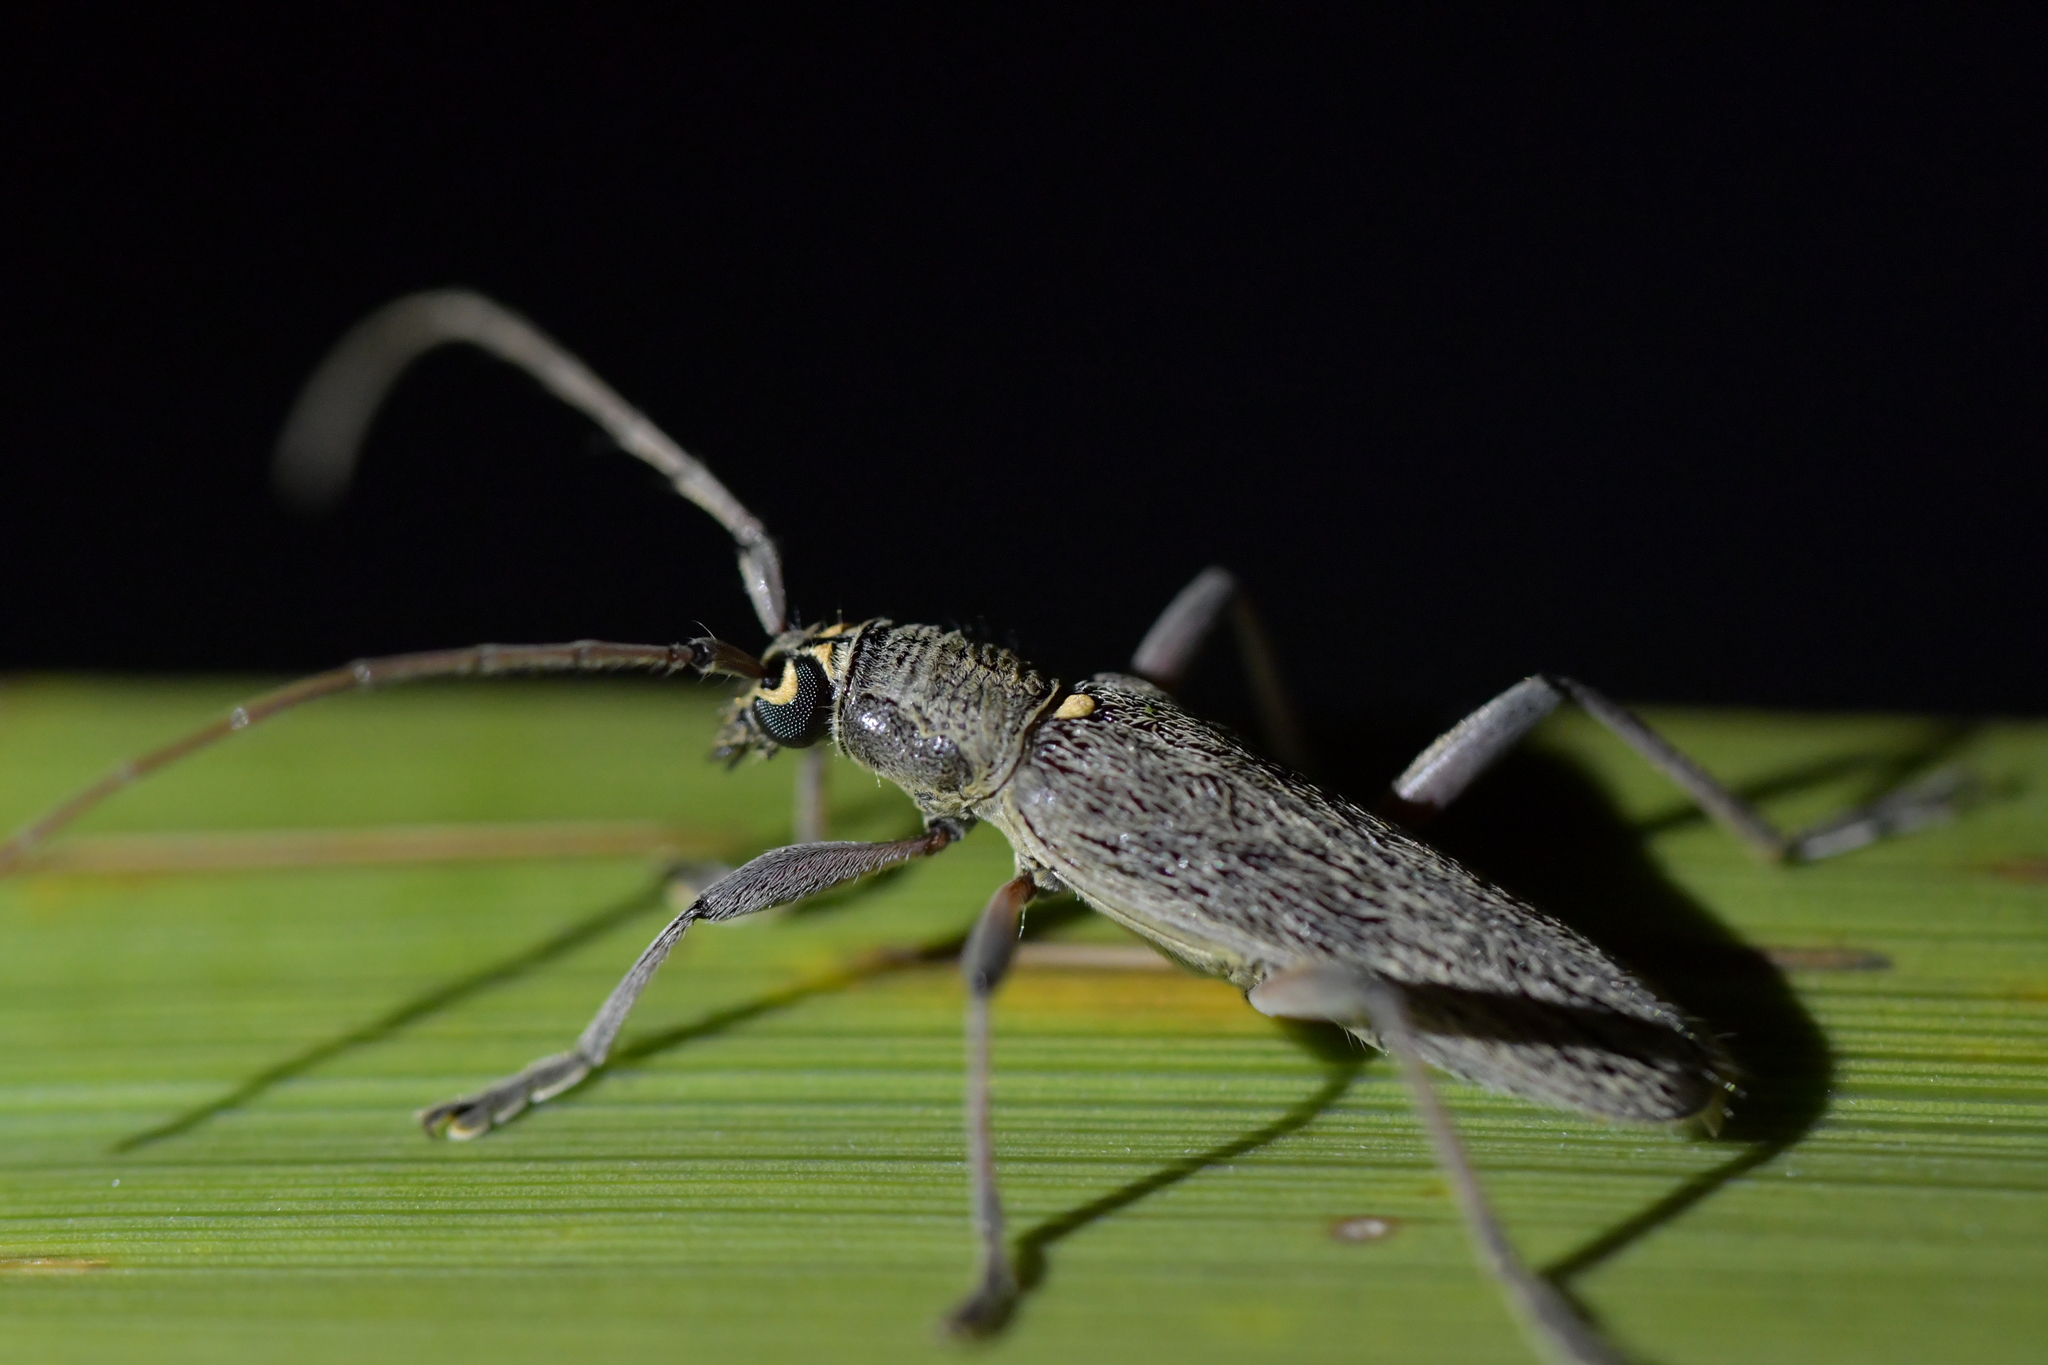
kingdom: Animalia
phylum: Arthropoda
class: Insecta
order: Coleoptera
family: Cerambycidae
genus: Oemona
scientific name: Oemona hirta
